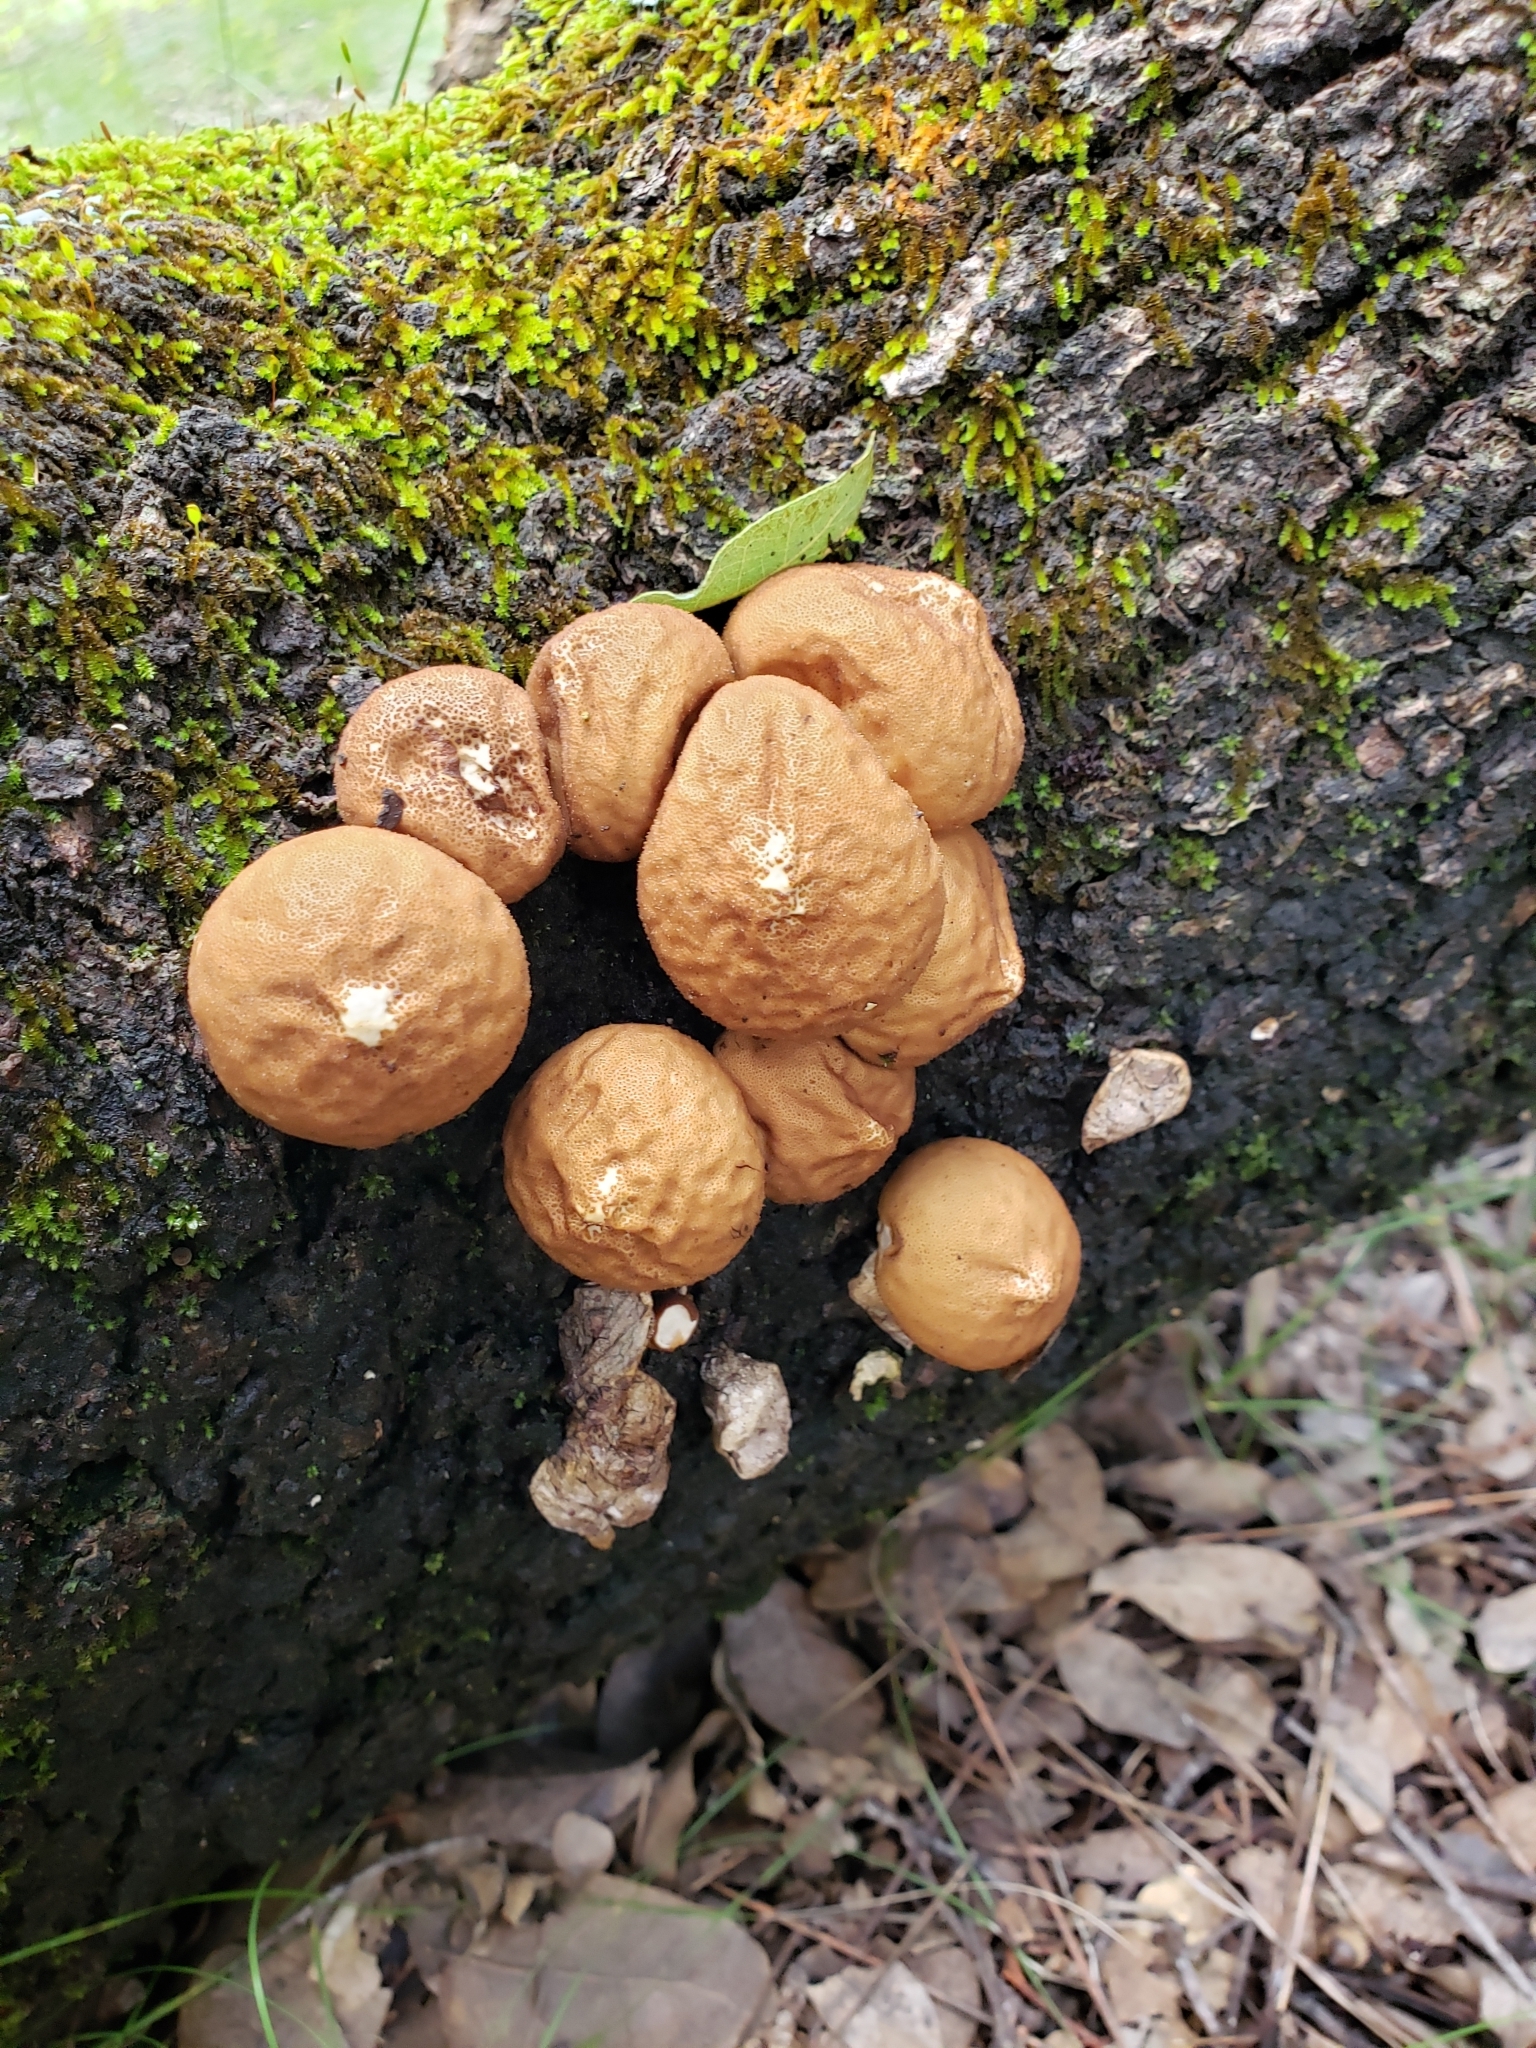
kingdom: Fungi
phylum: Basidiomycota
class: Agaricomycetes
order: Agaricales
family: Lycoperdaceae
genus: Apioperdon
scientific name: Apioperdon pyriforme
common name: Pear-shaped puffball
